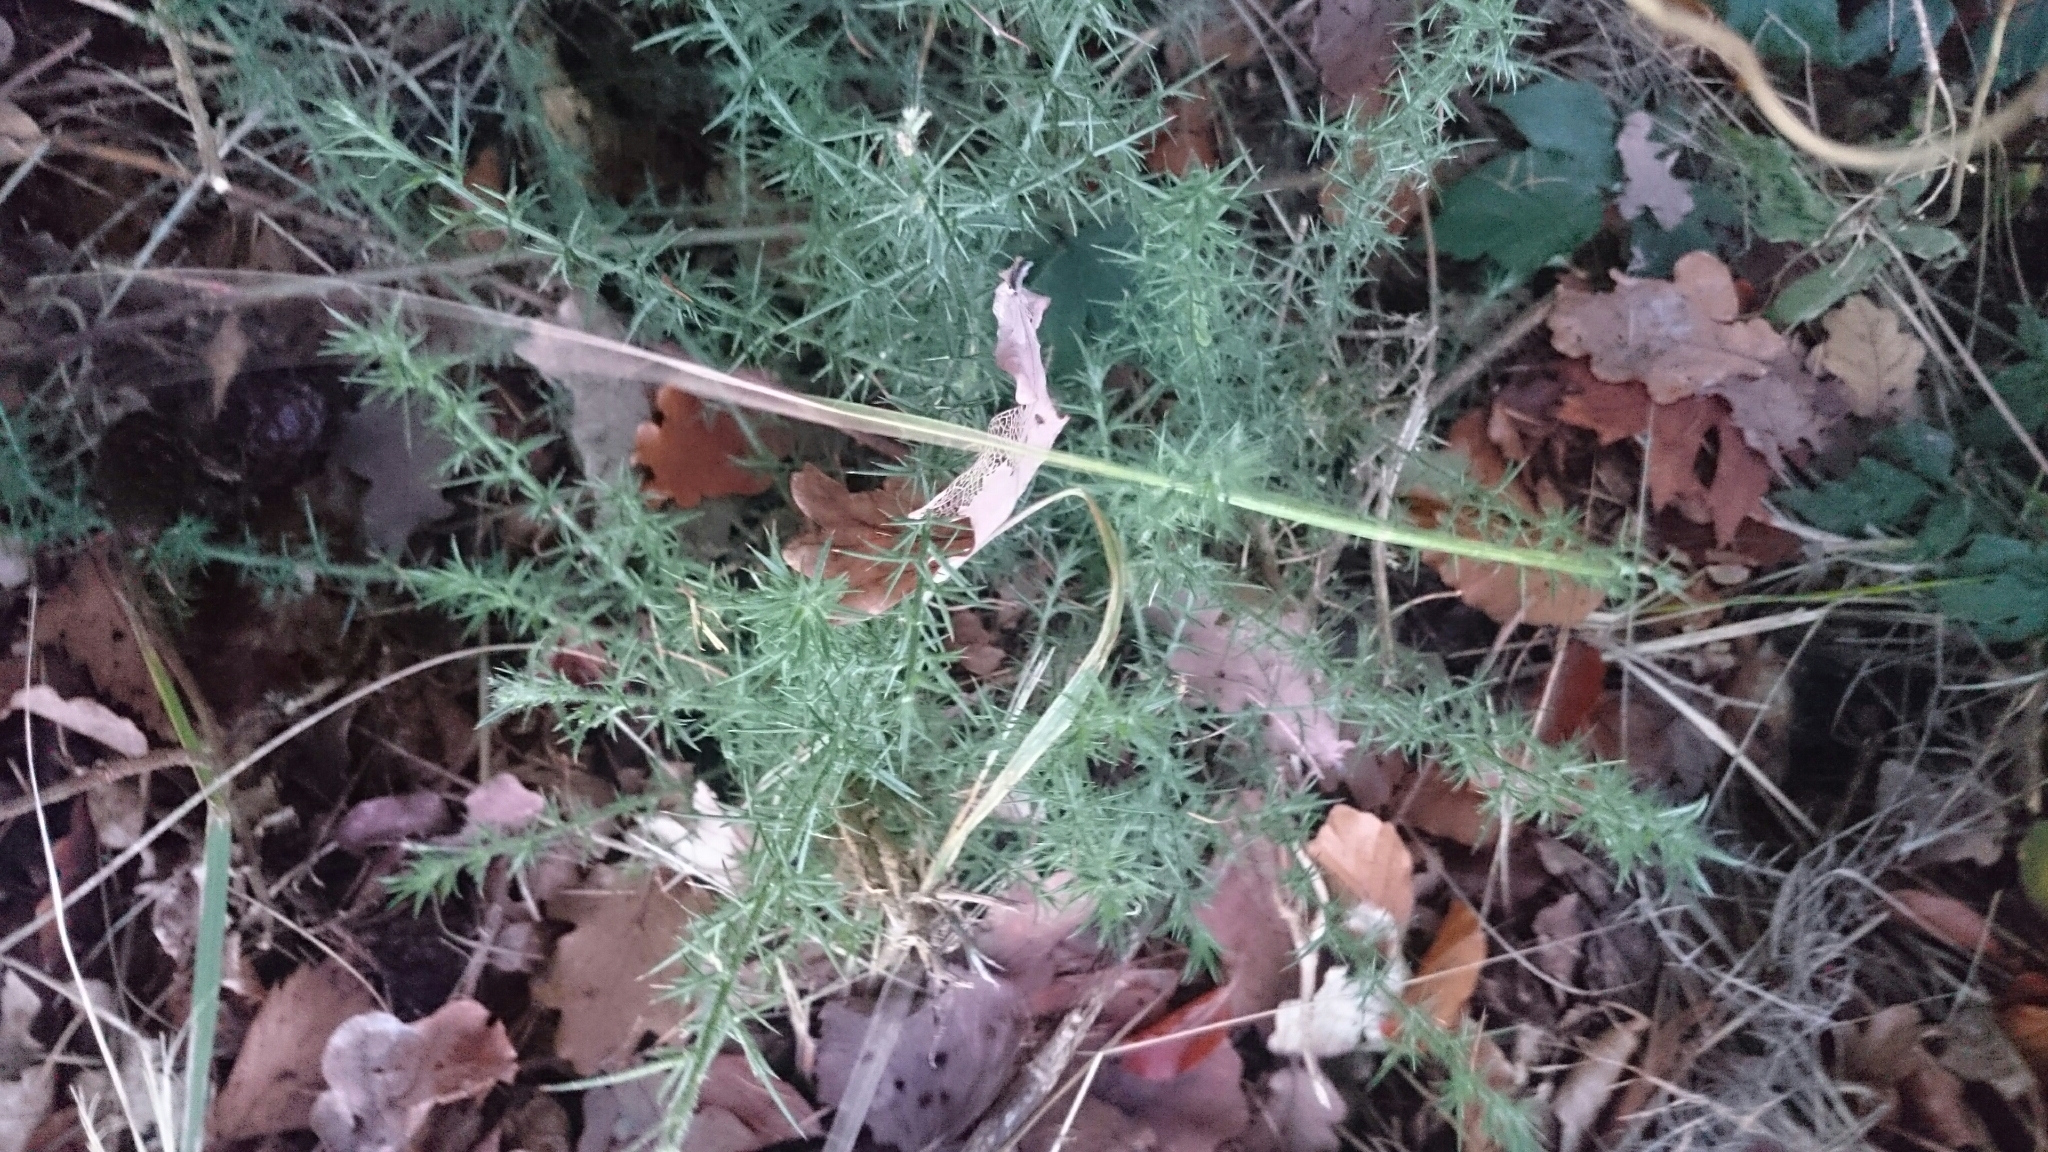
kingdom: Plantae
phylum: Tracheophyta
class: Magnoliopsida
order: Fabales
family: Fabaceae
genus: Ulex
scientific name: Ulex europaeus
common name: Common gorse
